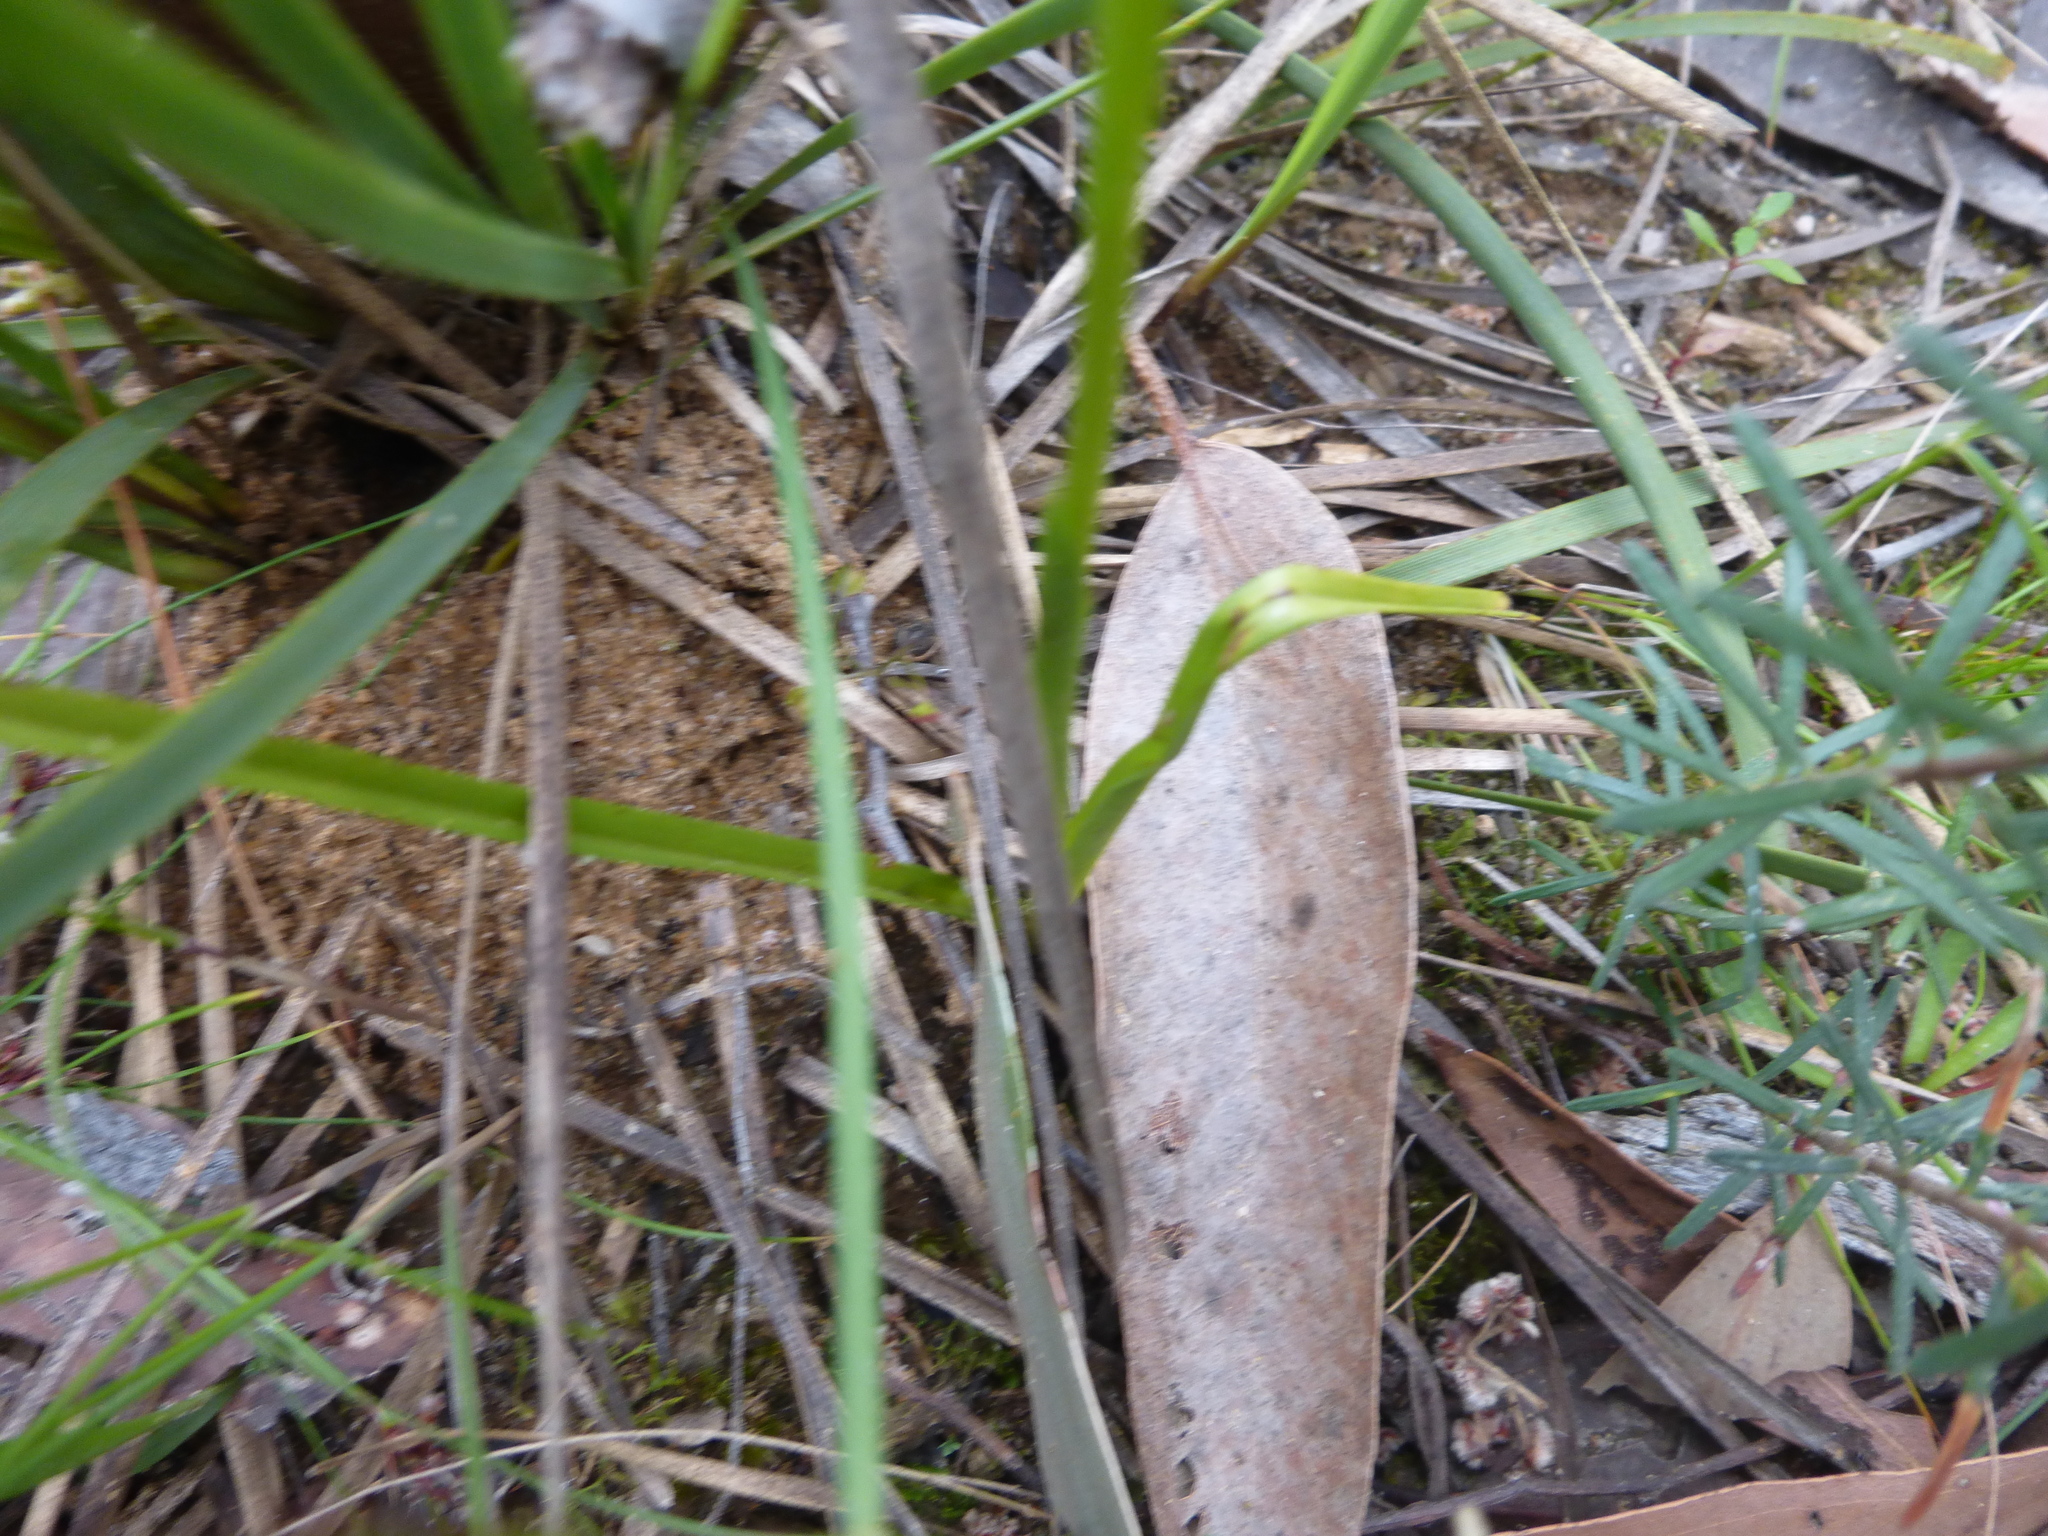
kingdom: Plantae
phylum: Tracheophyta
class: Liliopsida
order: Asparagales
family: Orchidaceae
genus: Diuris
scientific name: Diuris orientis
